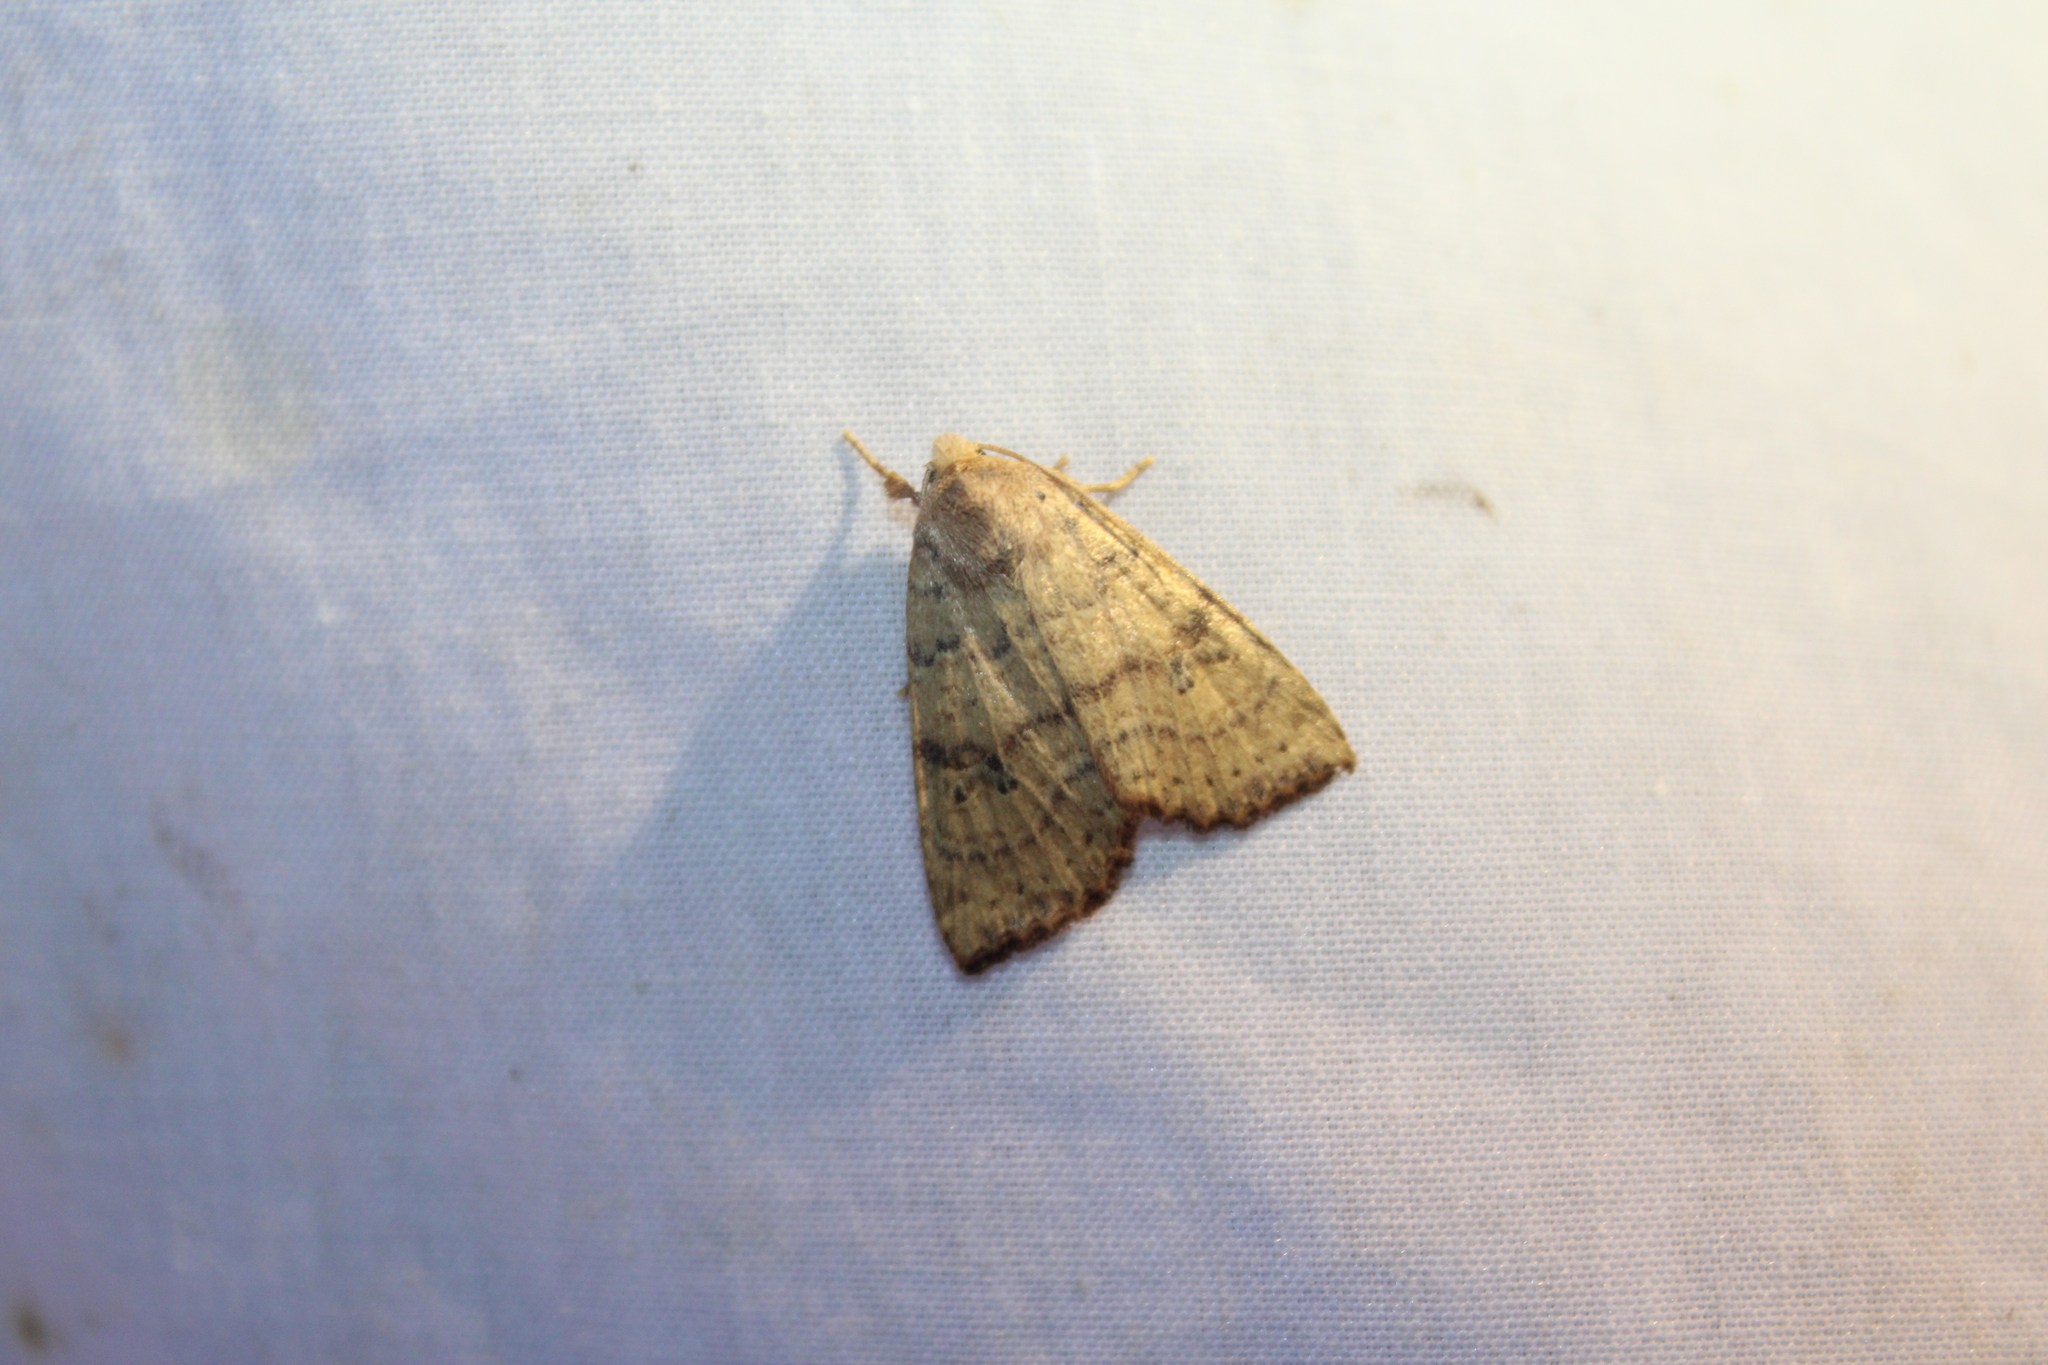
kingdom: Animalia
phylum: Arthropoda
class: Insecta
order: Lepidoptera
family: Noctuidae
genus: Anathix
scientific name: Anathix ralla
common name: Dotted sallow
